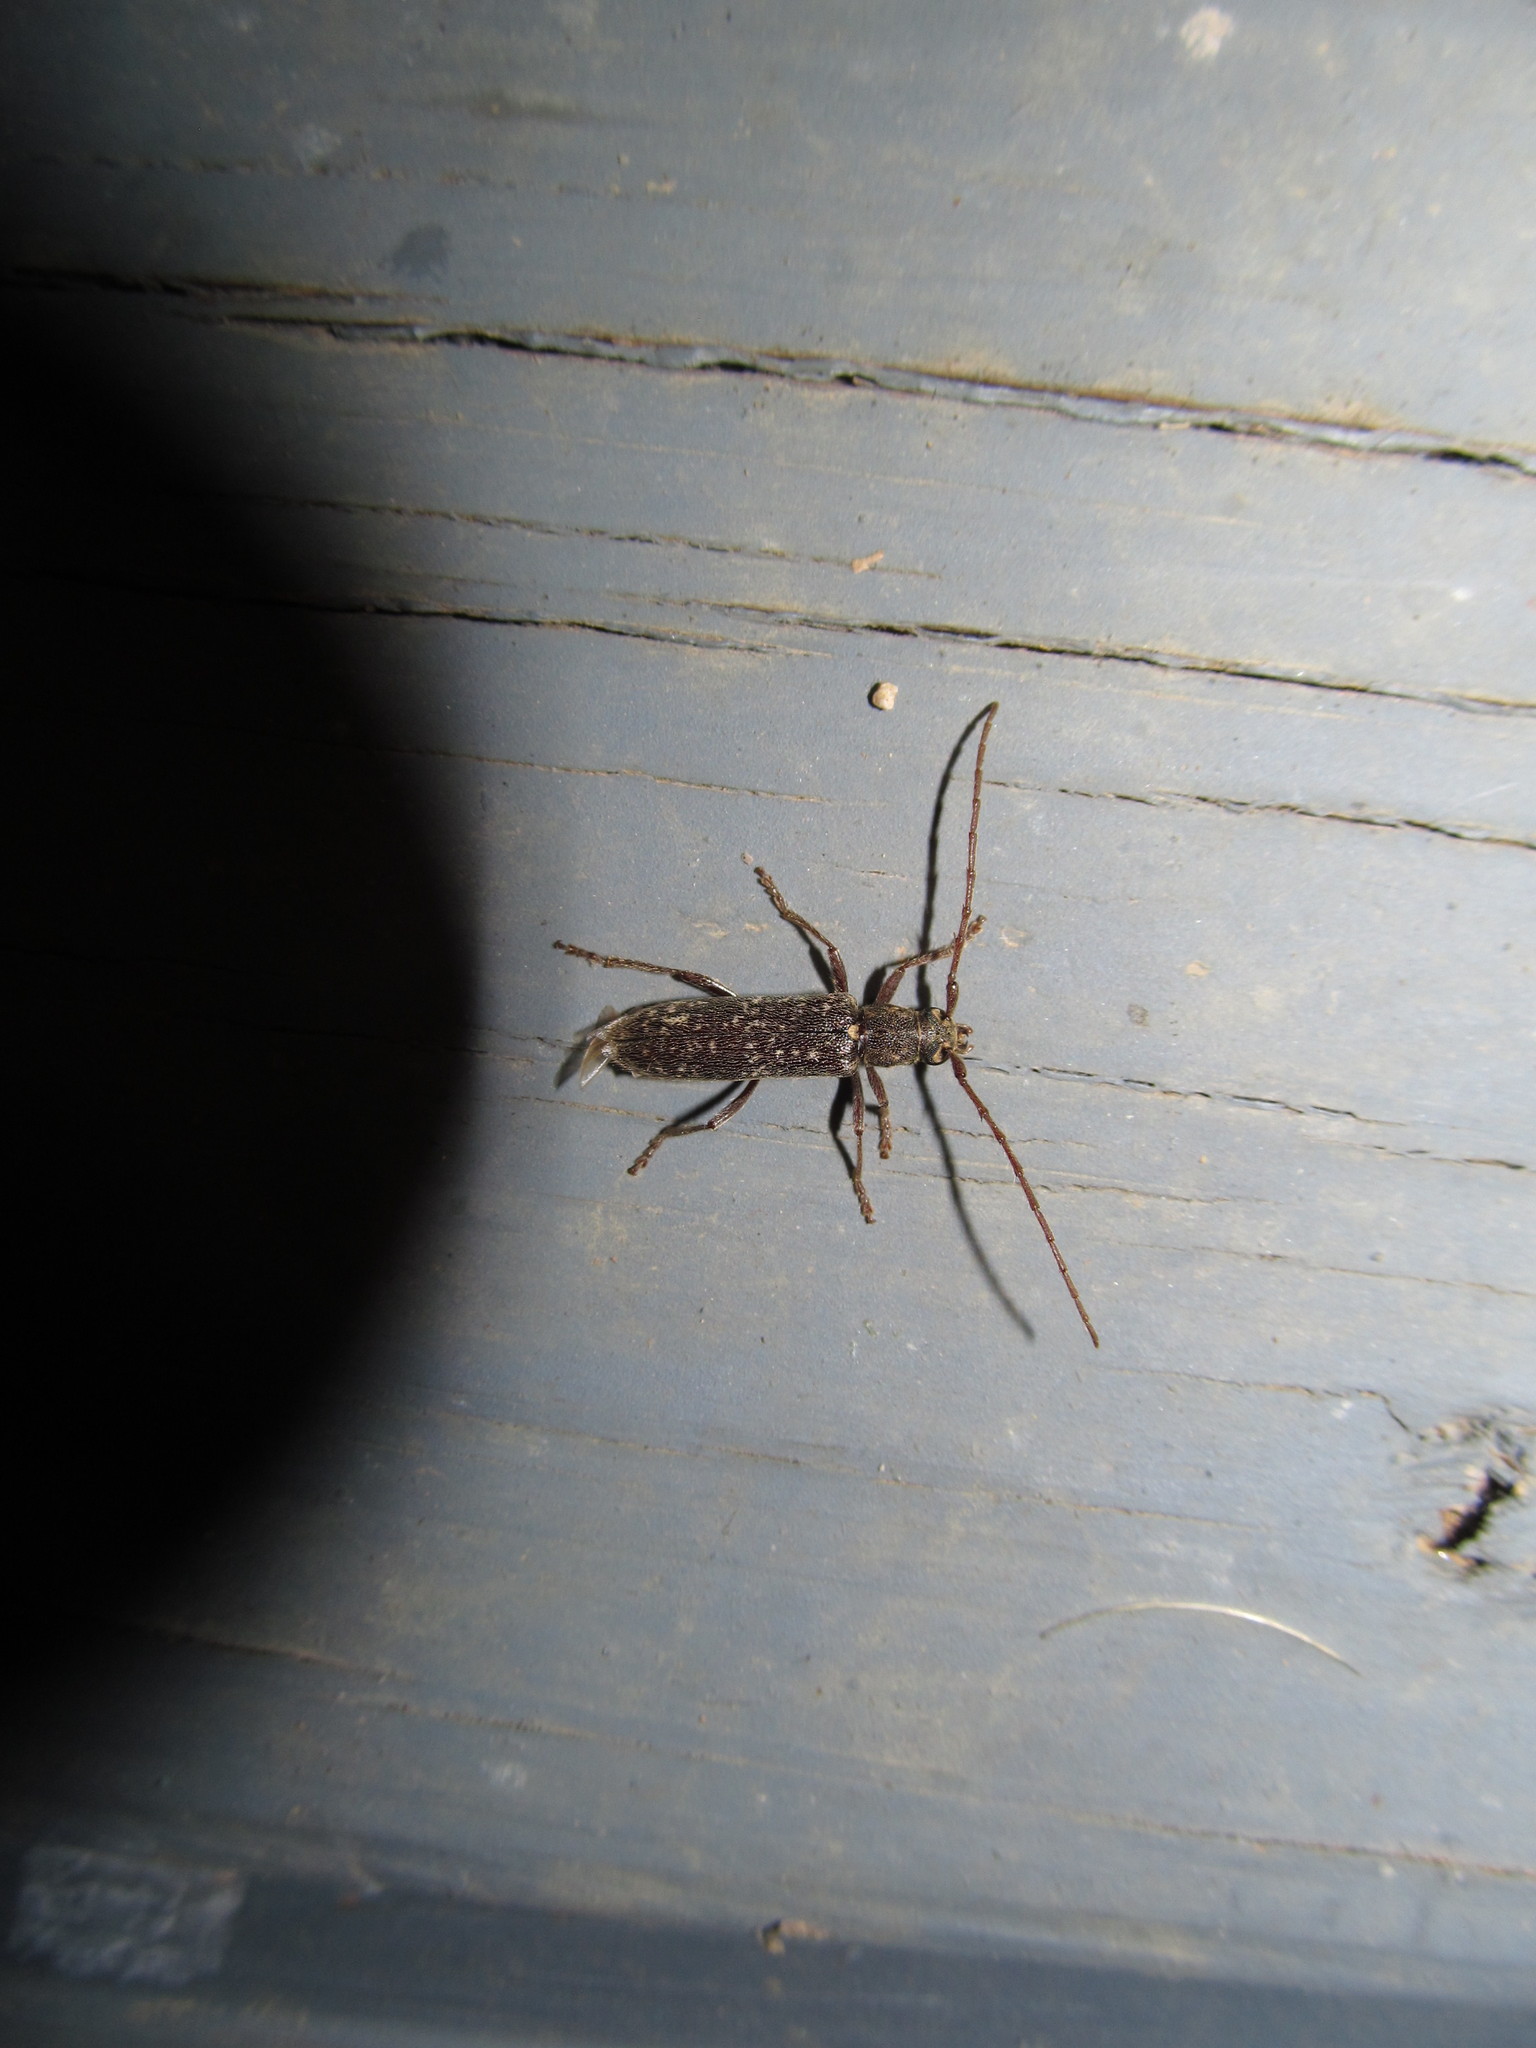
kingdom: Animalia
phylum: Arthropoda
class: Insecta
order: Coleoptera
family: Cerambycidae
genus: Anelaphus
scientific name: Anelaphus villosus
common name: Twig pruner
